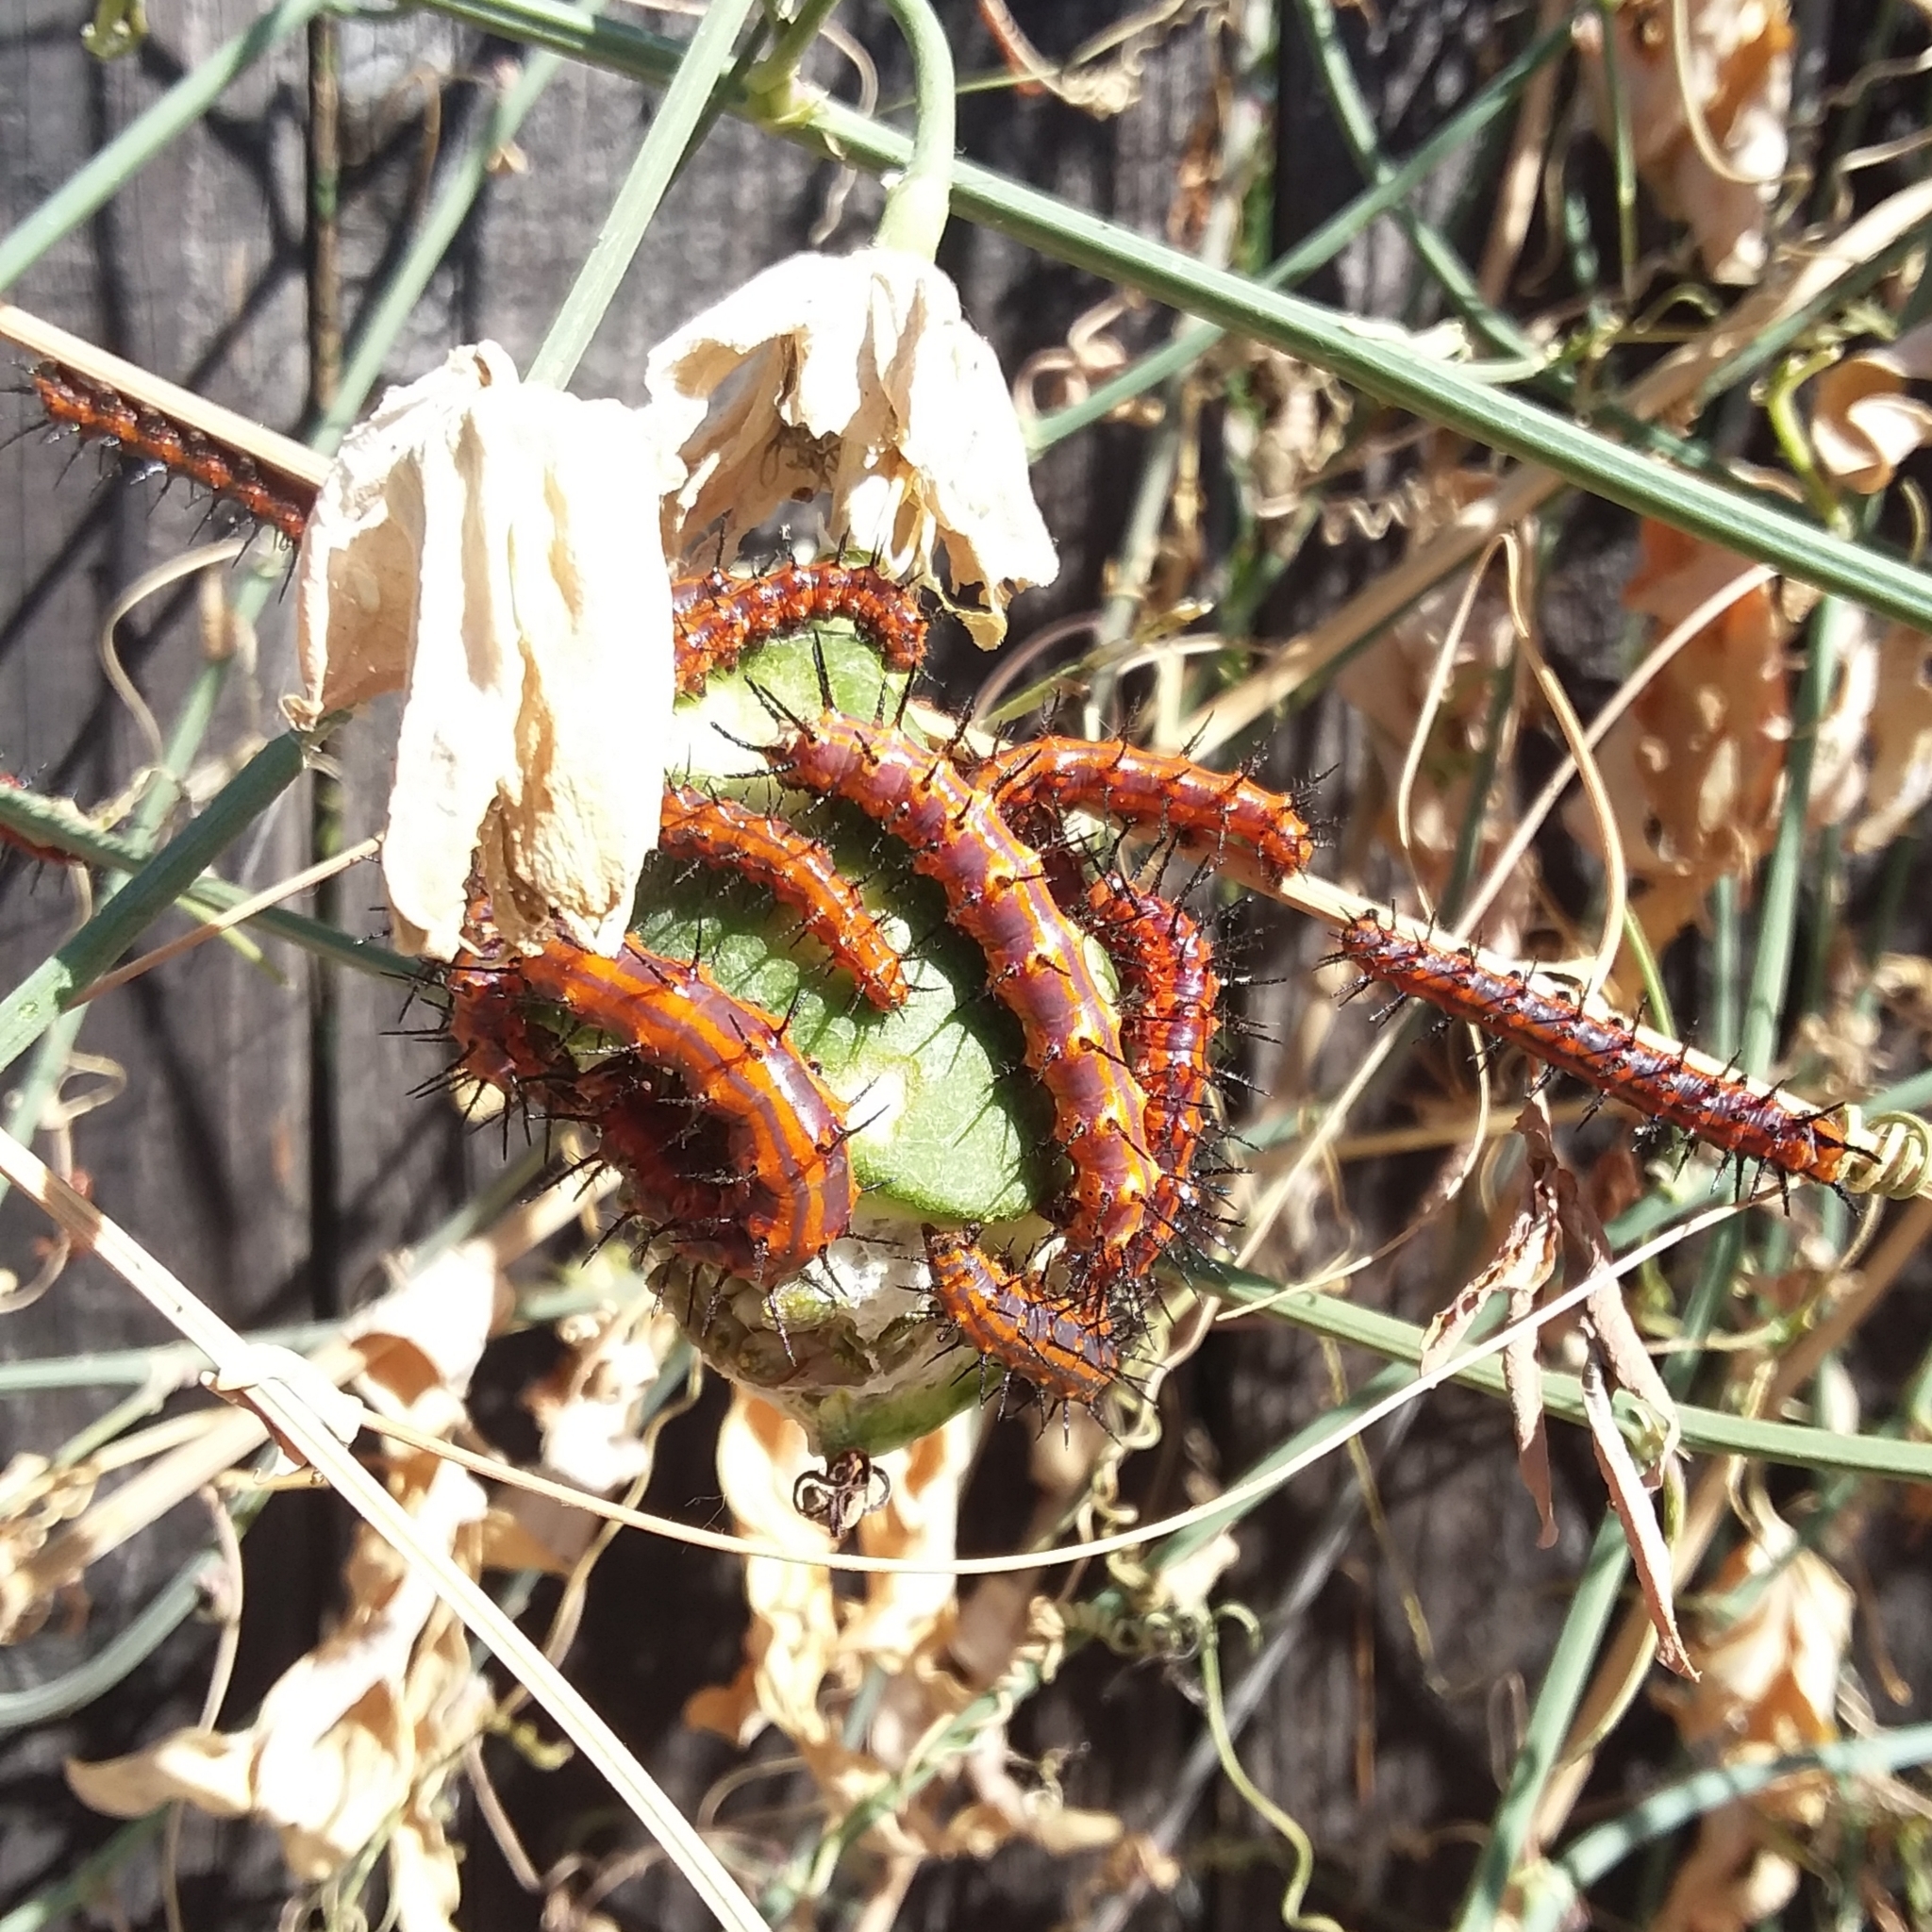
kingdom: Animalia
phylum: Arthropoda
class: Insecta
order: Lepidoptera
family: Nymphalidae
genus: Dione
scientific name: Dione vanillae
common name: Gulf fritillary
